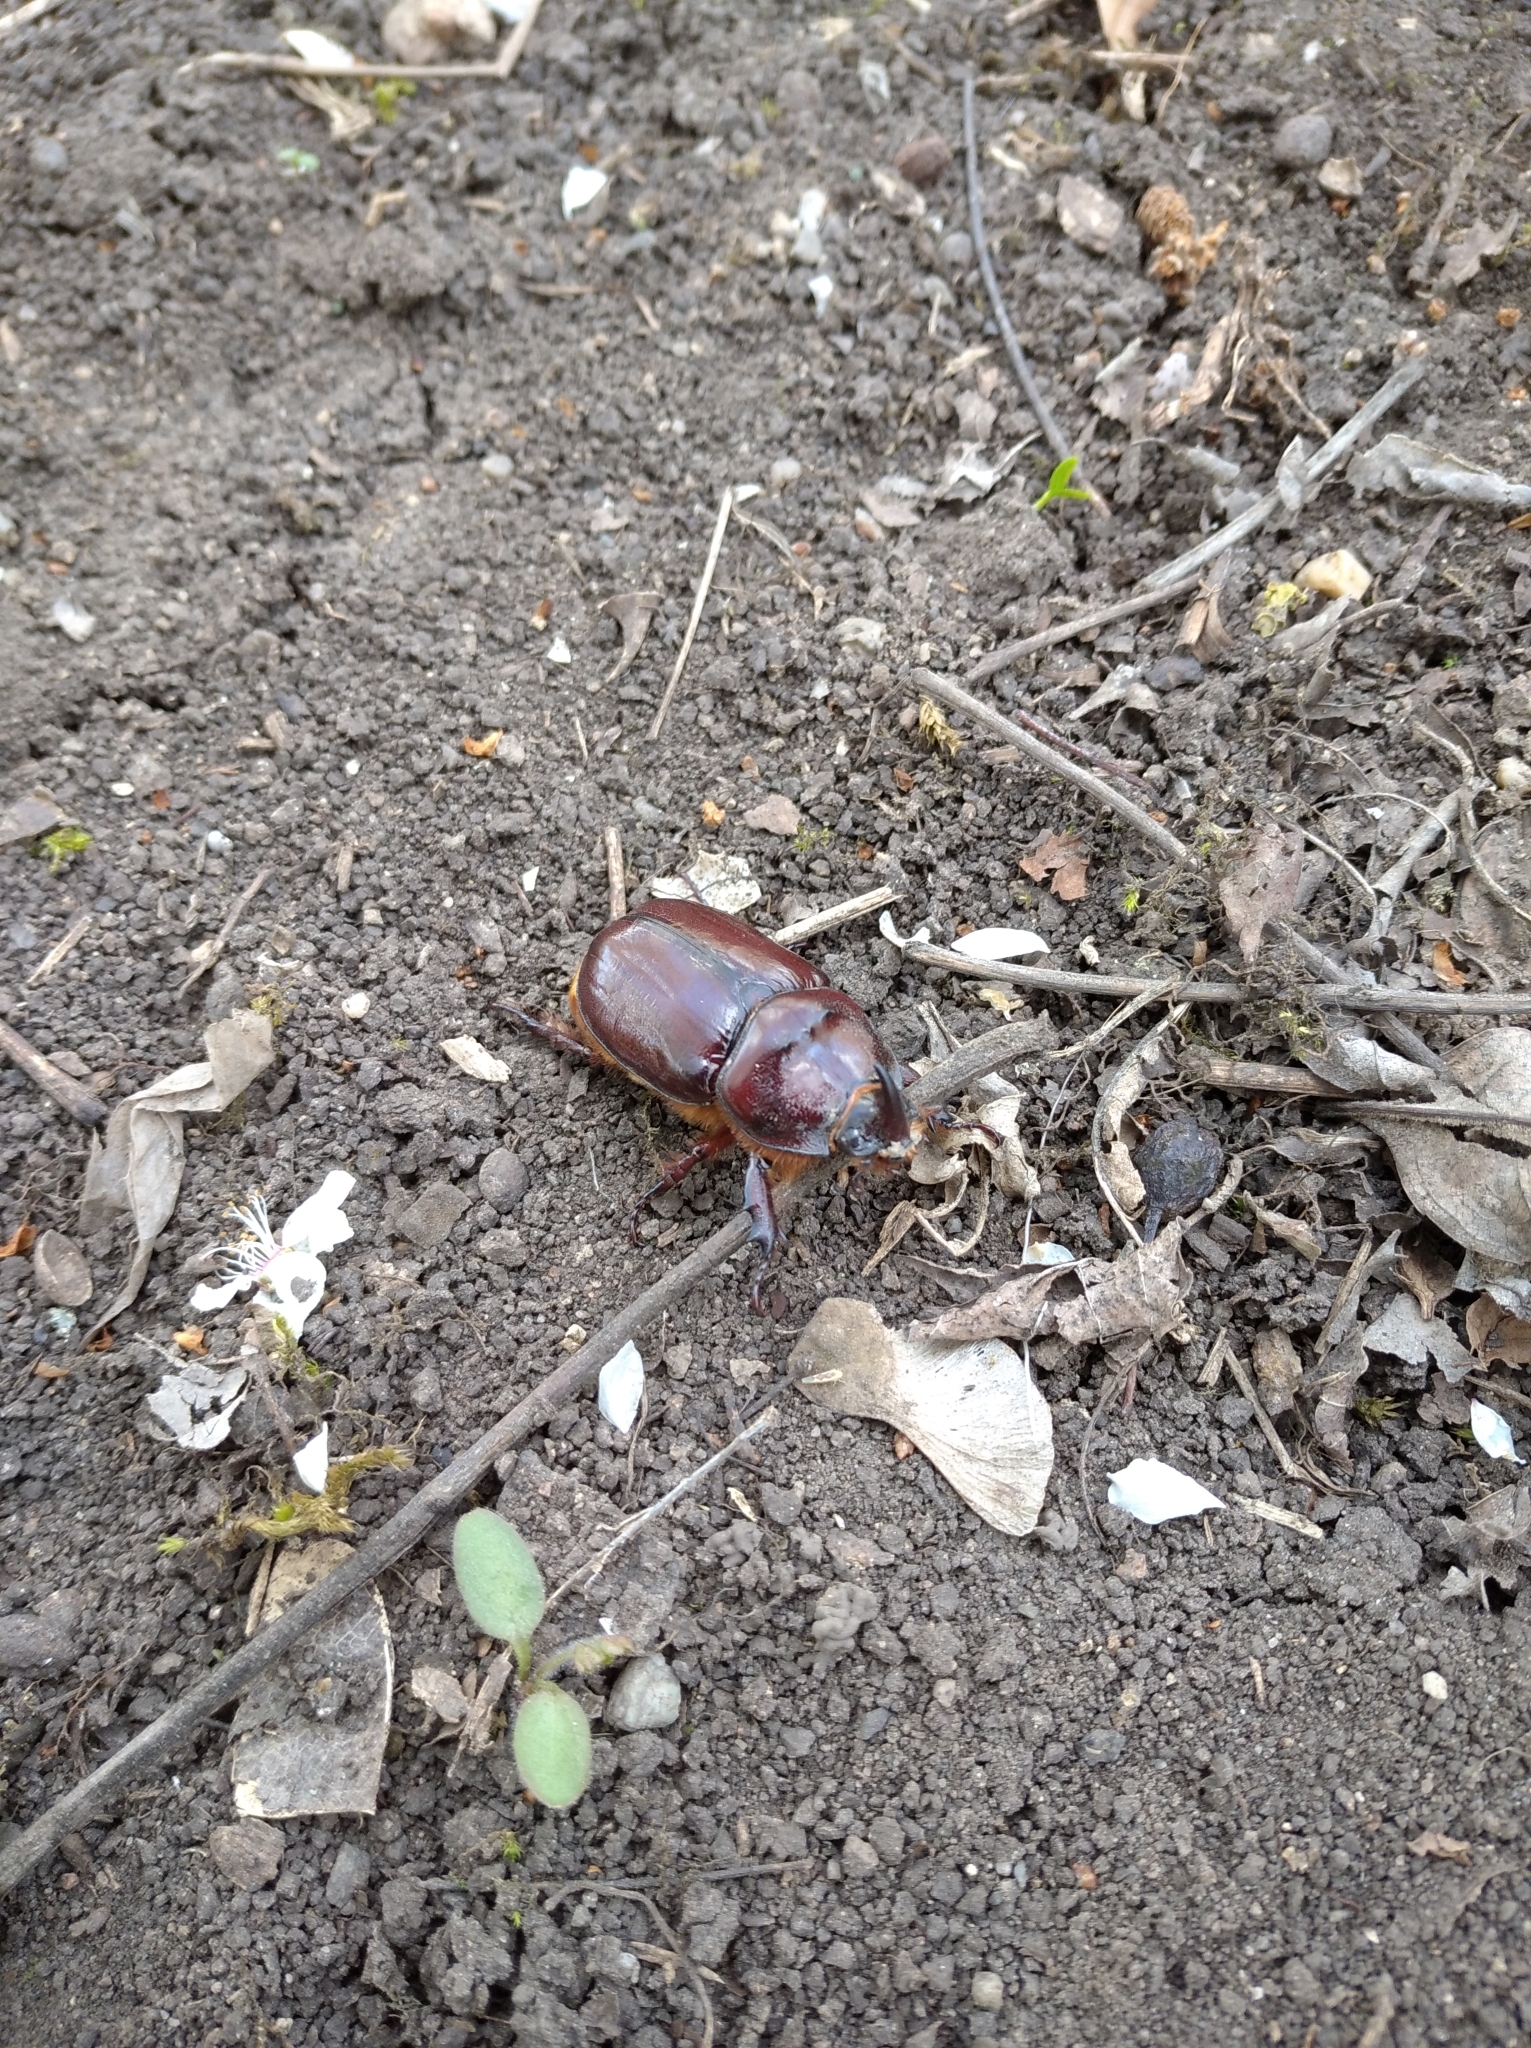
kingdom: Animalia
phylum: Arthropoda
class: Insecta
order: Coleoptera
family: Scarabaeidae
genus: Oryctes
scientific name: Oryctes nasicornis
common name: European rhinoceros beetle
